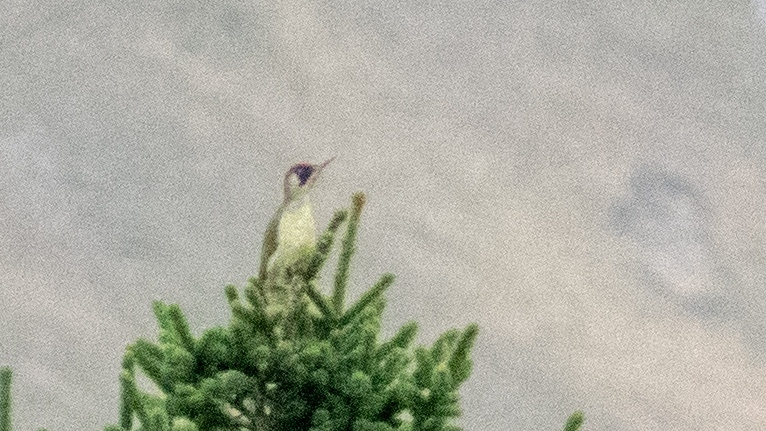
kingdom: Animalia
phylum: Chordata
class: Aves
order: Piciformes
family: Picidae
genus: Picus
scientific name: Picus viridis
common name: European green woodpecker
